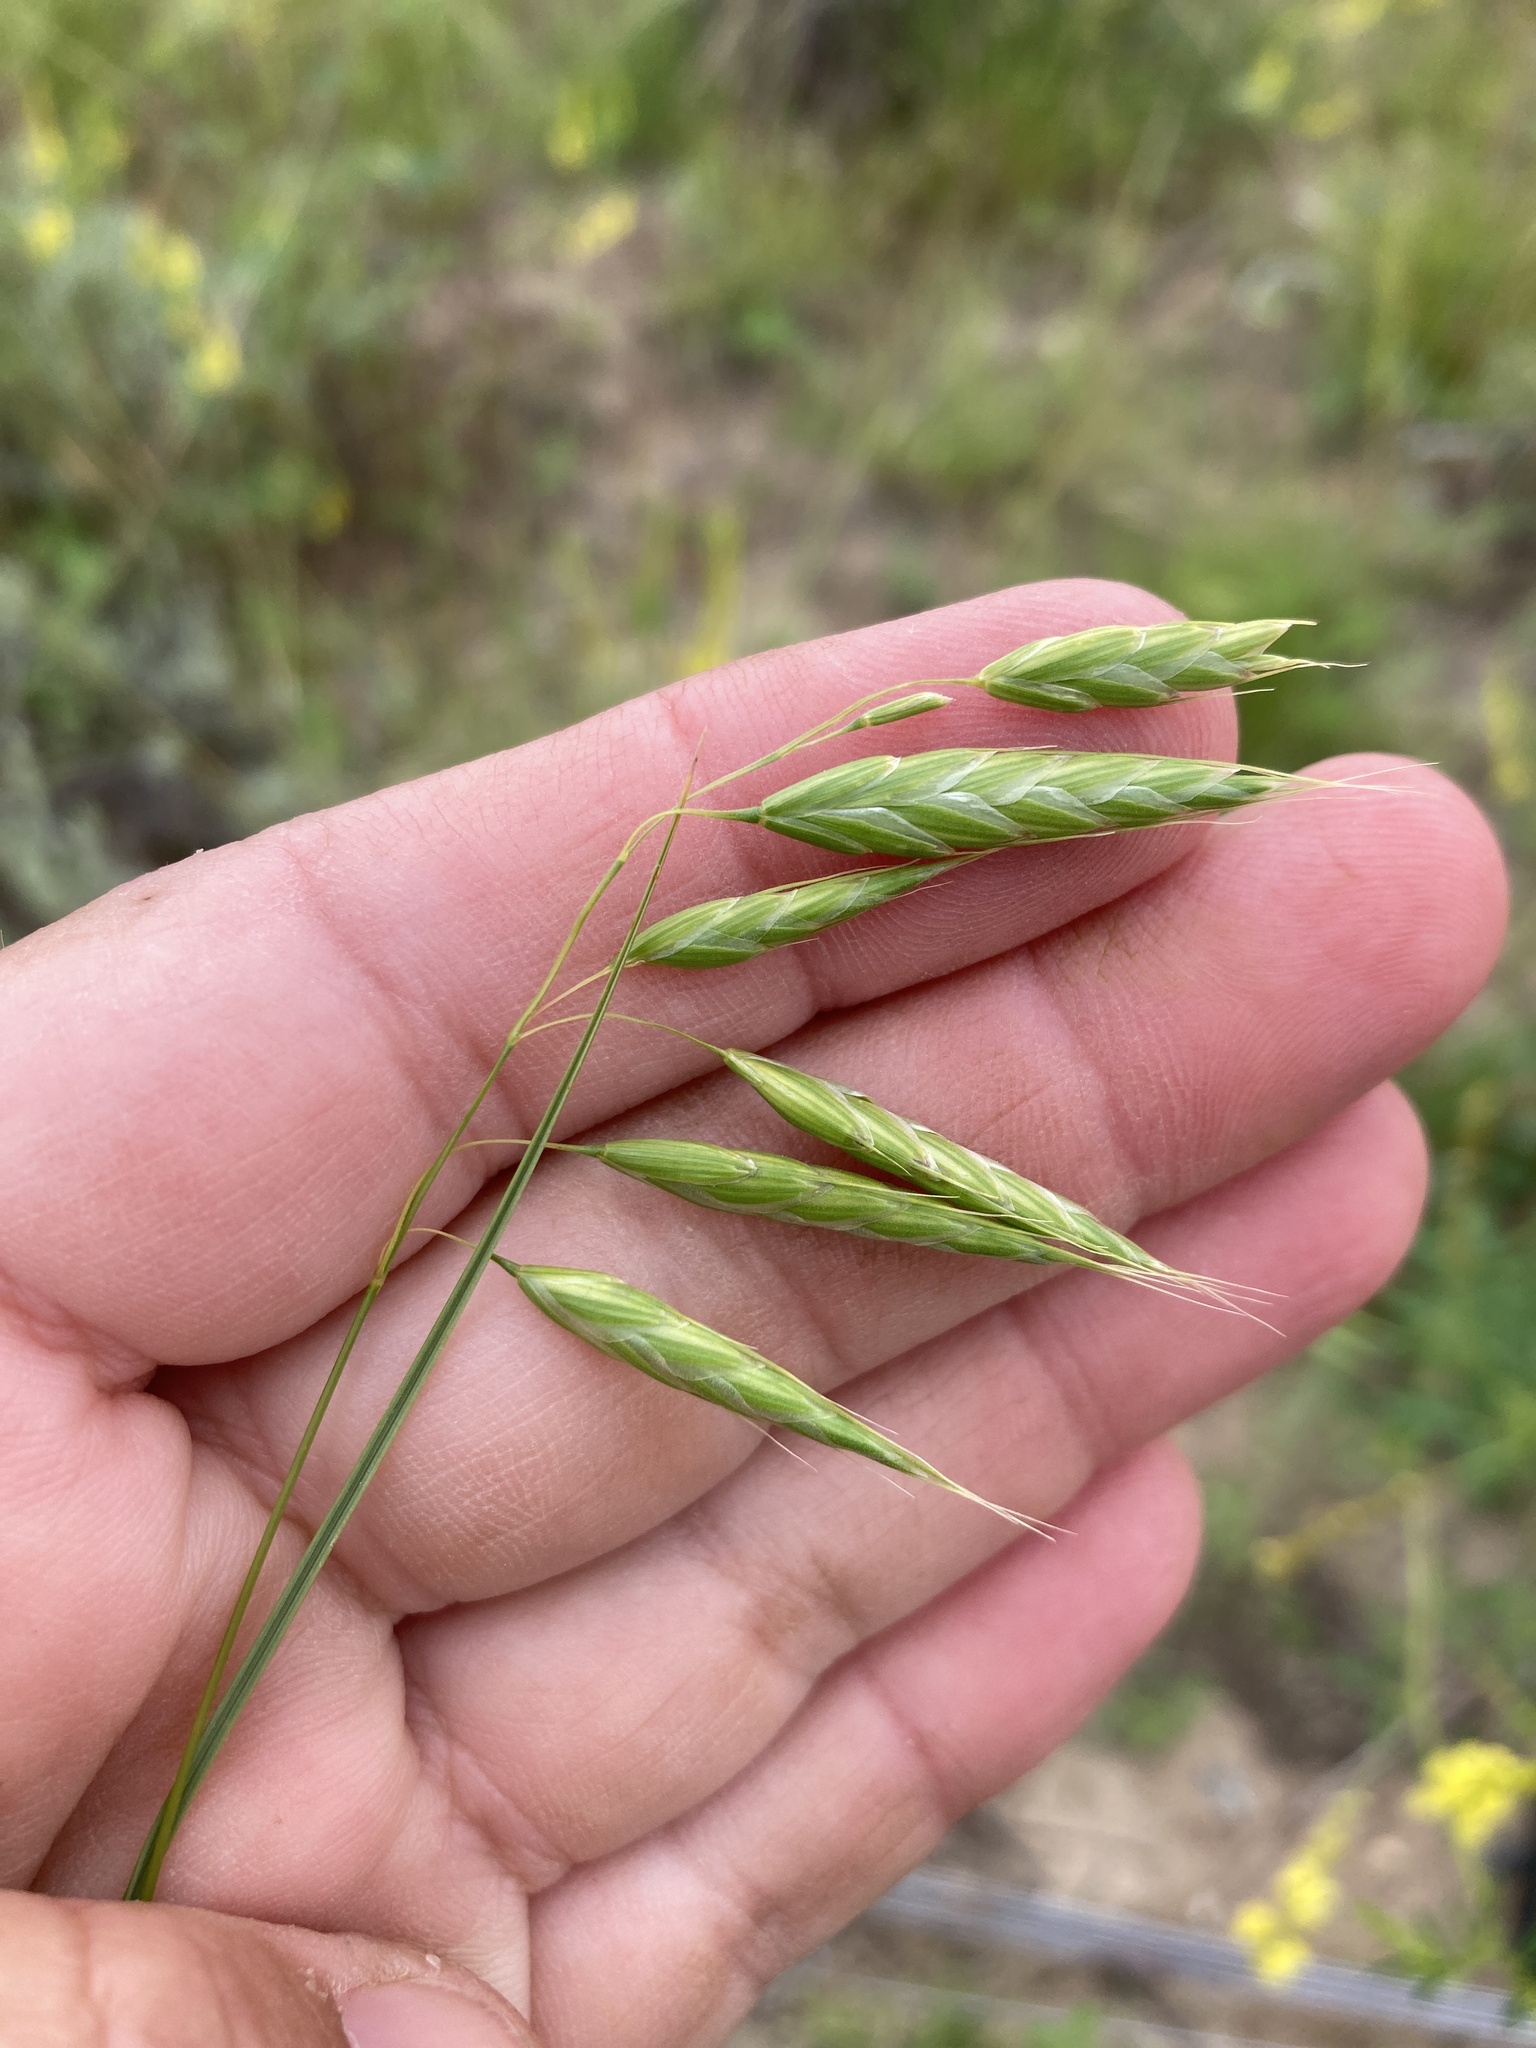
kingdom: Plantae
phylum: Tracheophyta
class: Liliopsida
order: Poales
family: Poaceae
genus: Bromus
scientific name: Bromus squarrosus
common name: Corn brome
